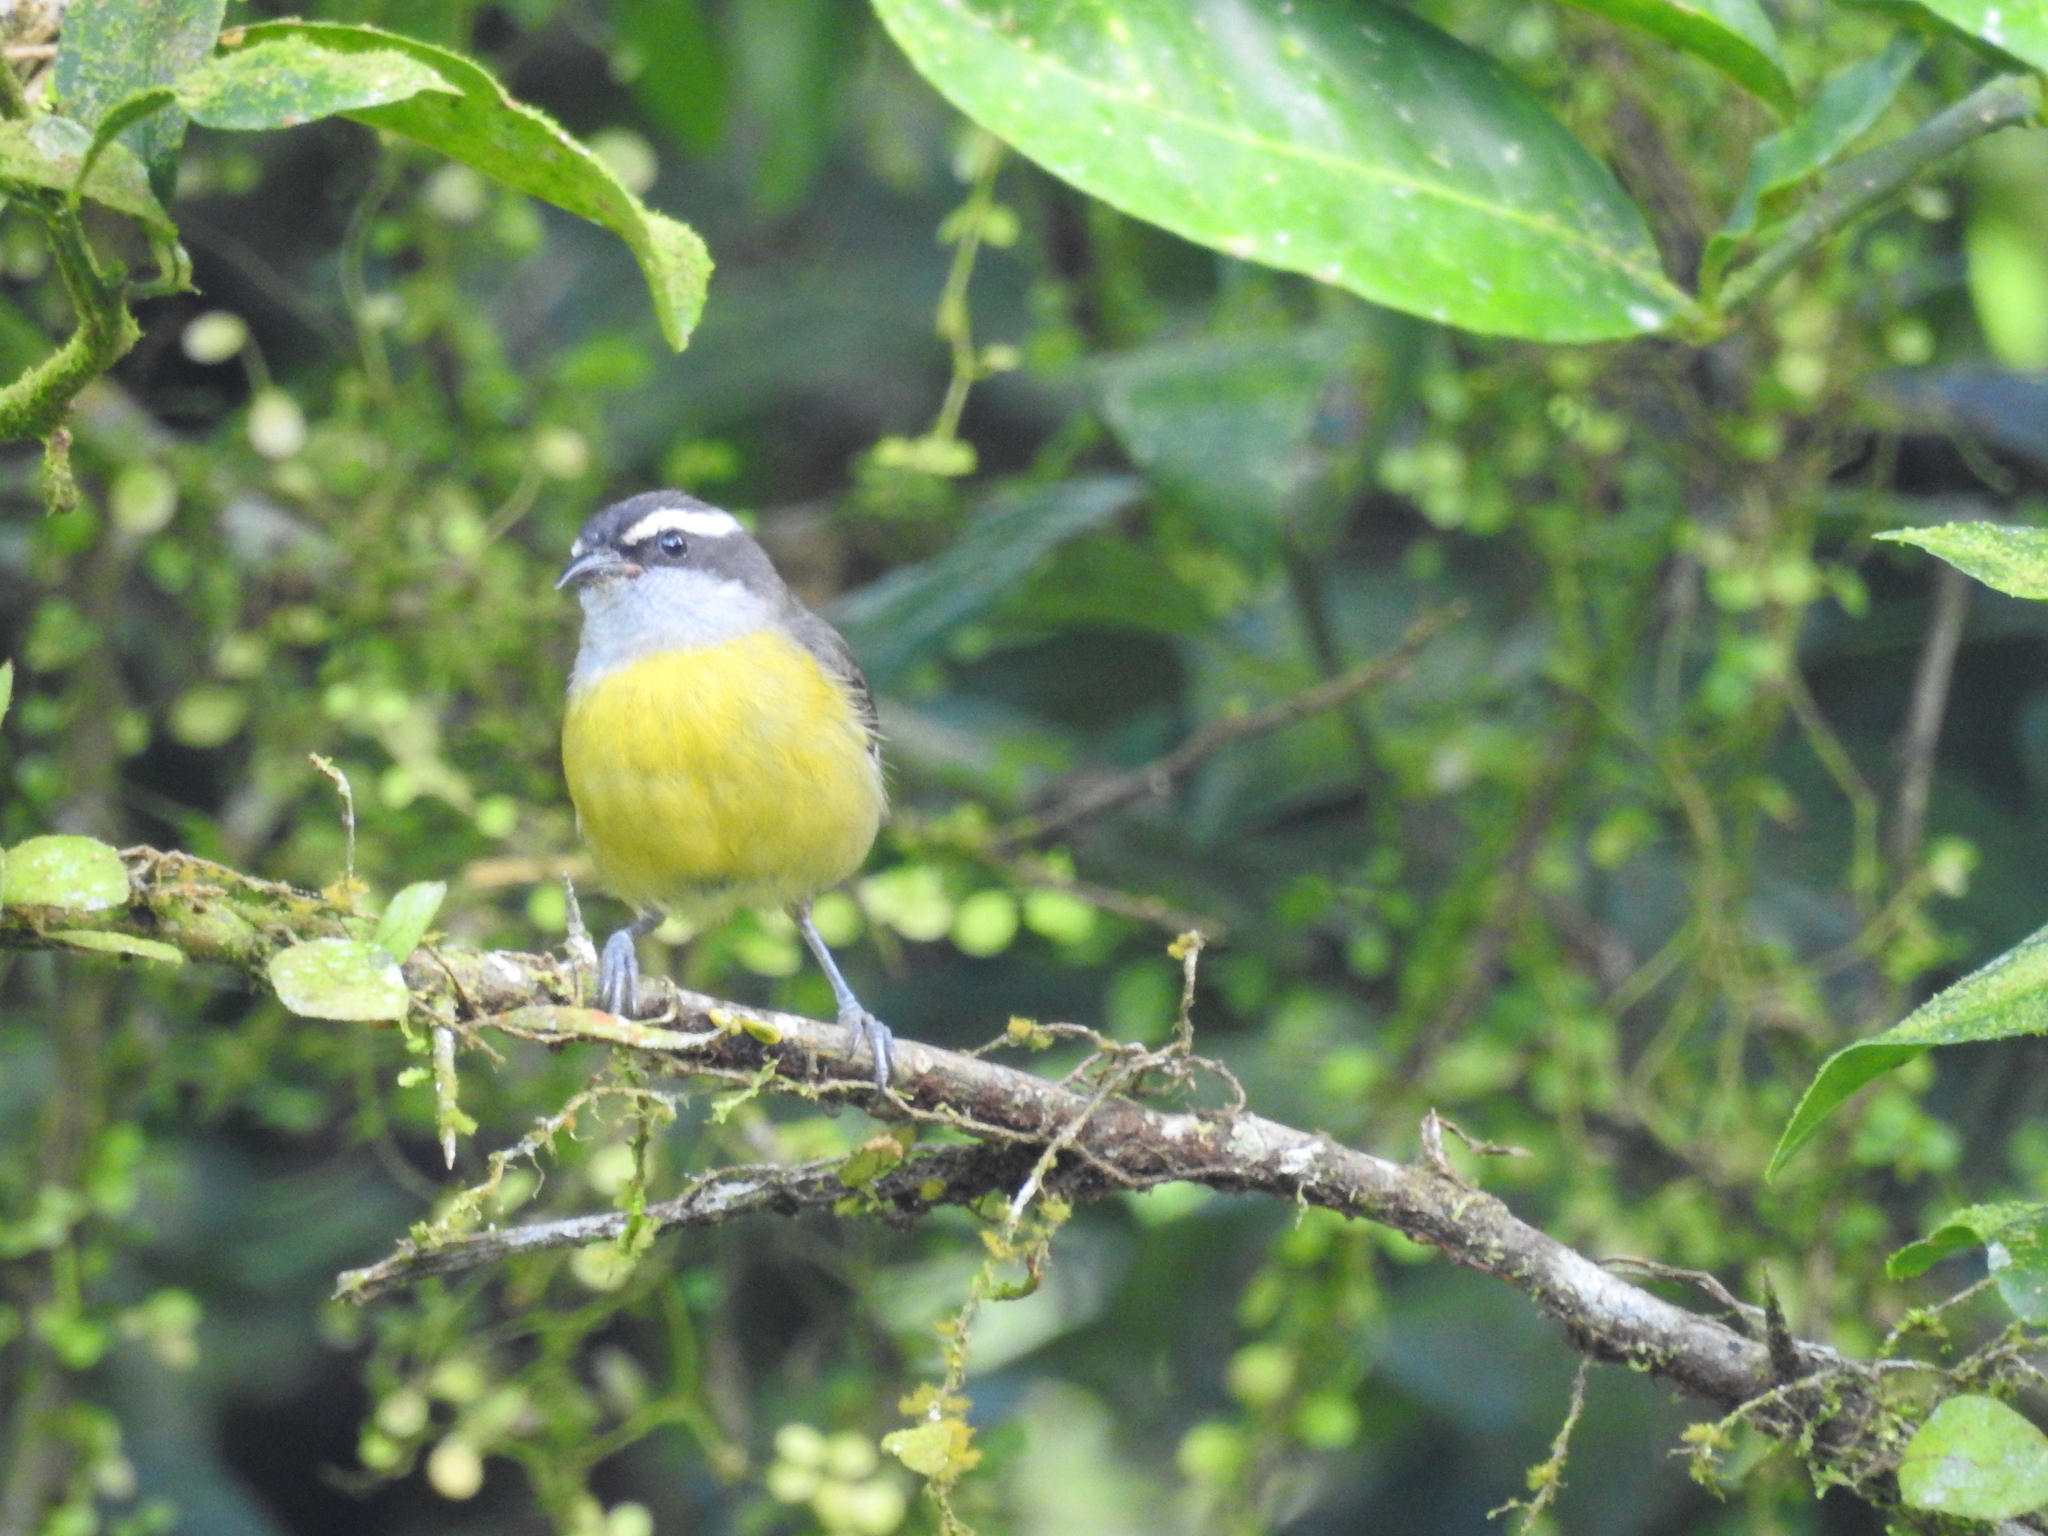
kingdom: Animalia
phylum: Chordata
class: Aves
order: Passeriformes
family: Thraupidae
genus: Coereba
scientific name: Coereba flaveola
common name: Bananaquit
